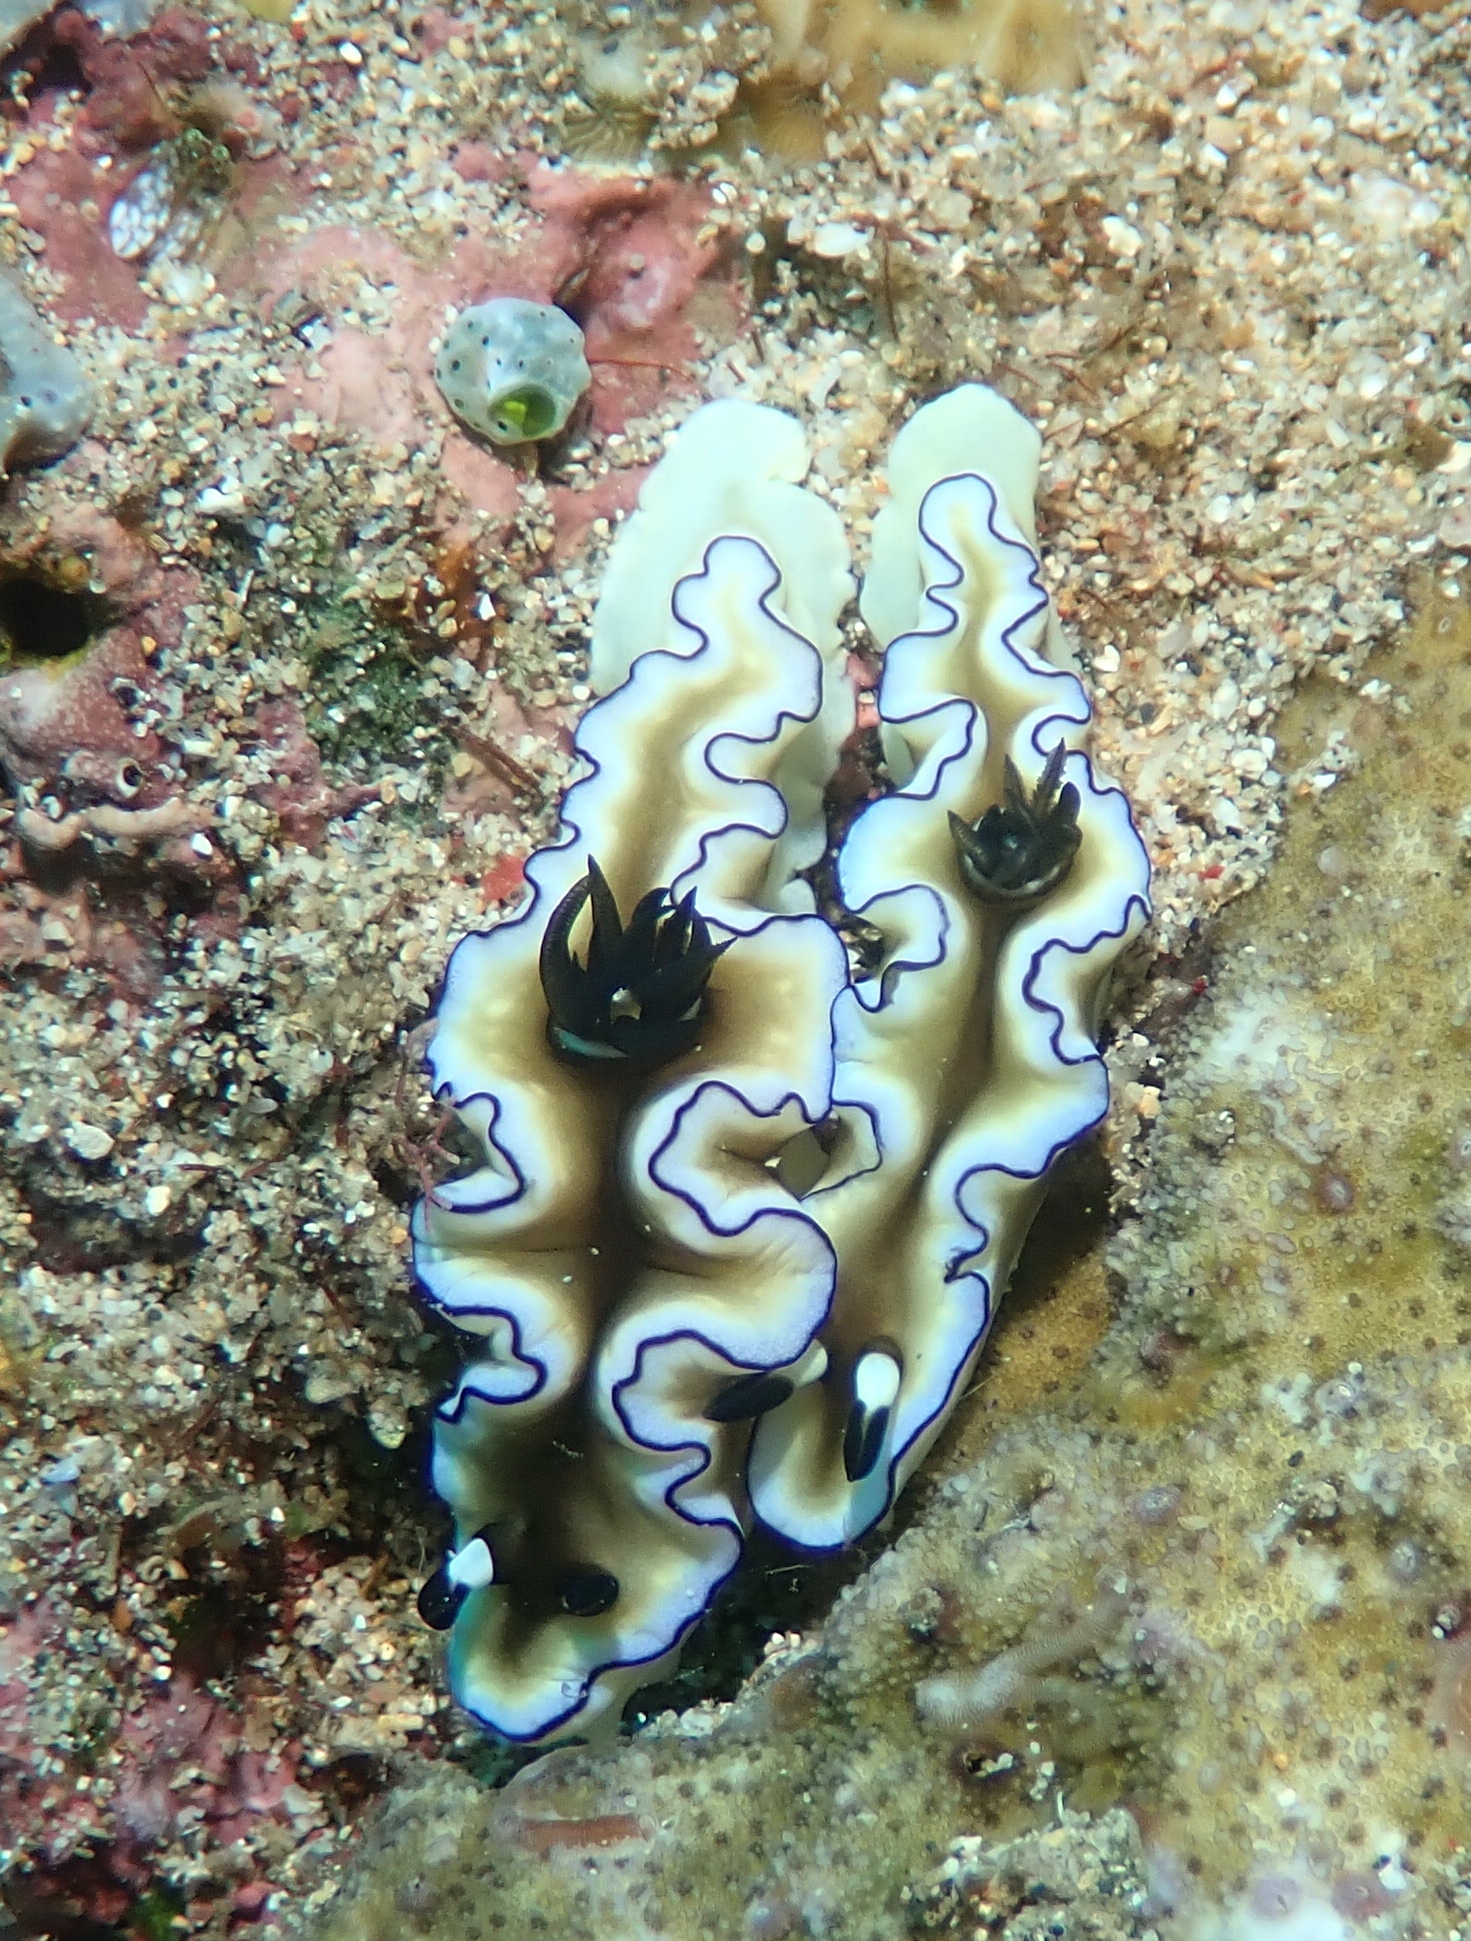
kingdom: Animalia
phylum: Mollusca
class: Gastropoda
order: Nudibranchia
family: Chromodorididae
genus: Doriprismatica
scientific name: Doriprismatica atromarginata
